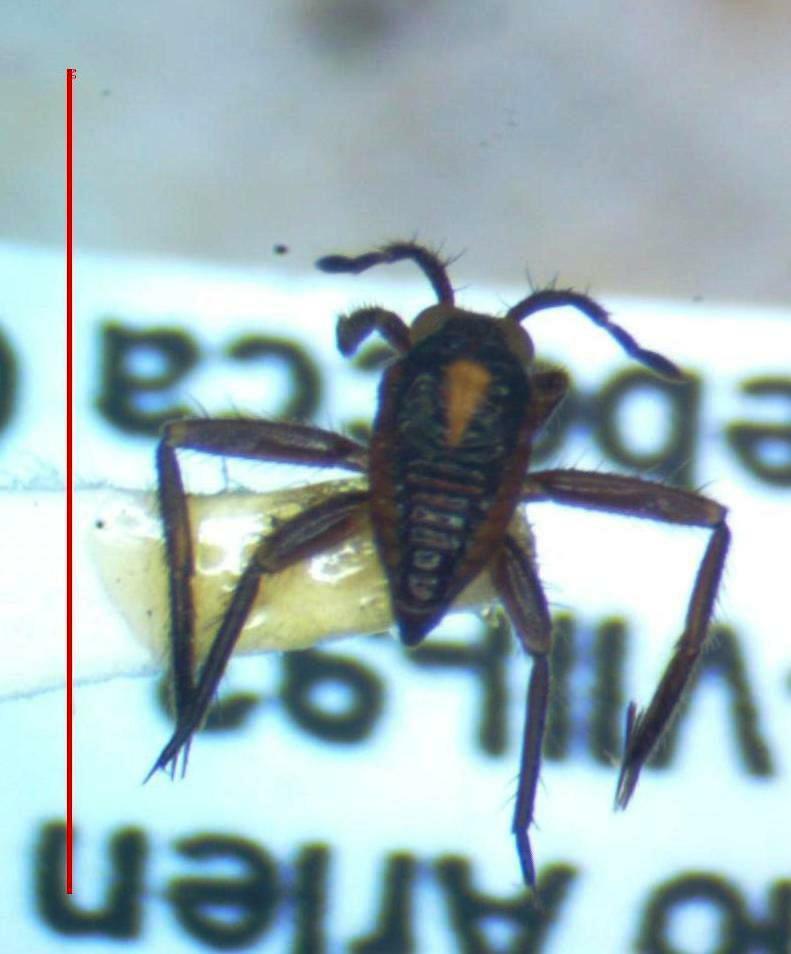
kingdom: Animalia
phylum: Arthropoda
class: Insecta
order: Hemiptera
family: Veliidae
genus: Rhagovelia
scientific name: Rhagovelia
